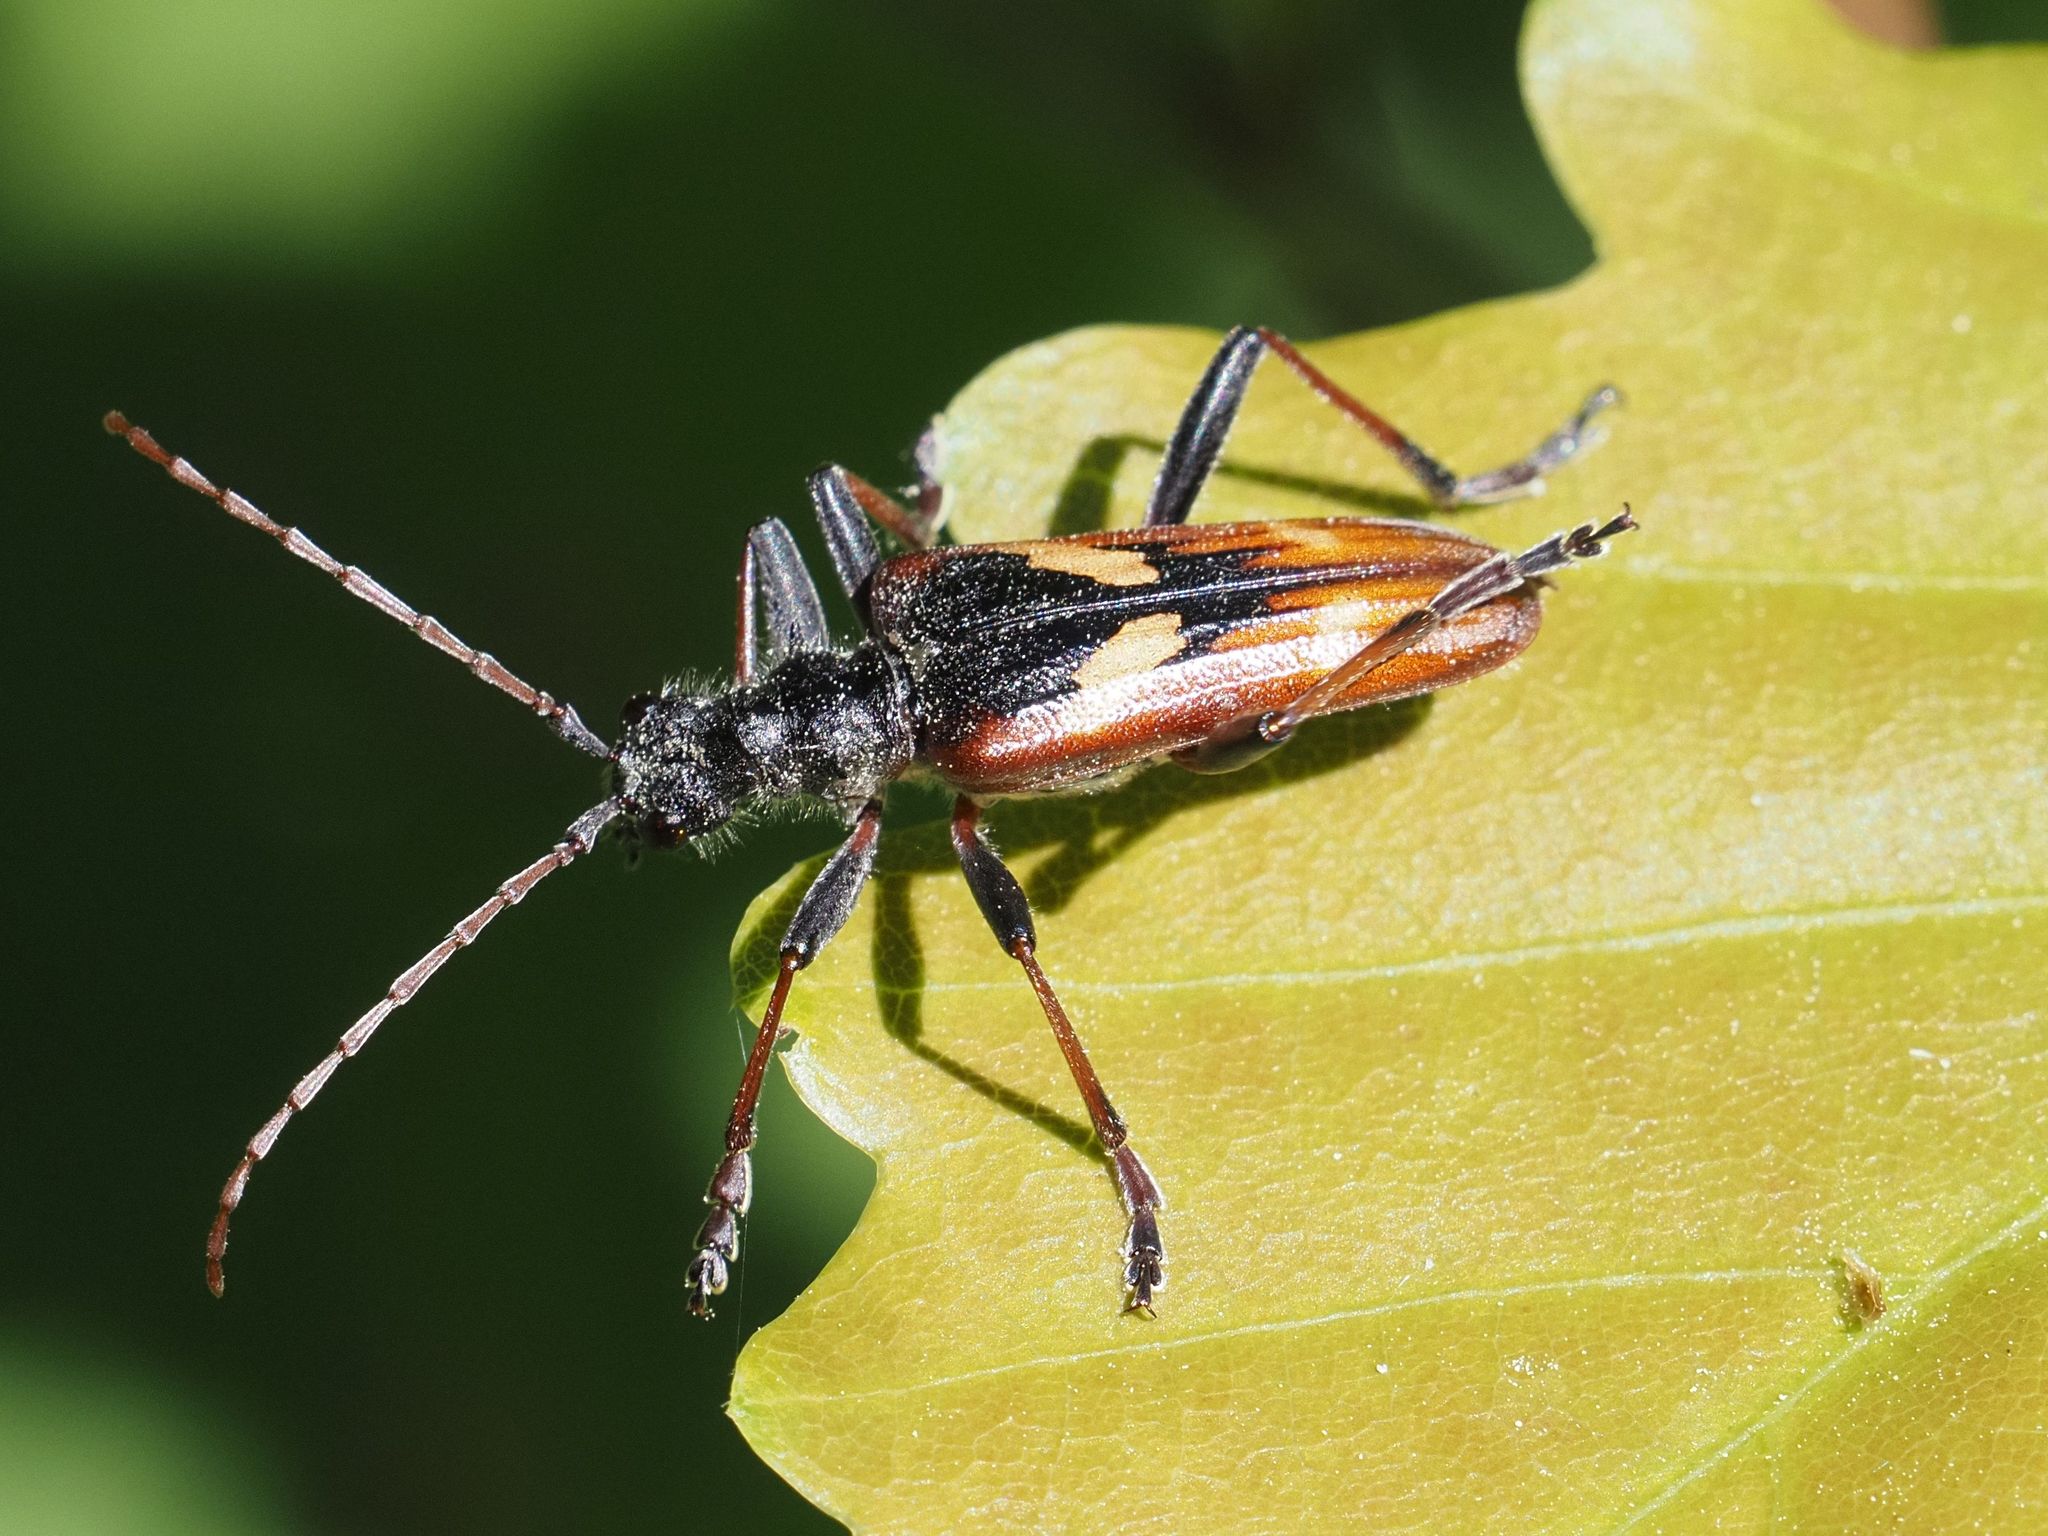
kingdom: Animalia
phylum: Arthropoda
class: Insecta
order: Coleoptera
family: Cerambycidae
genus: Rhagium
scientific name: Rhagium bifasciatum
